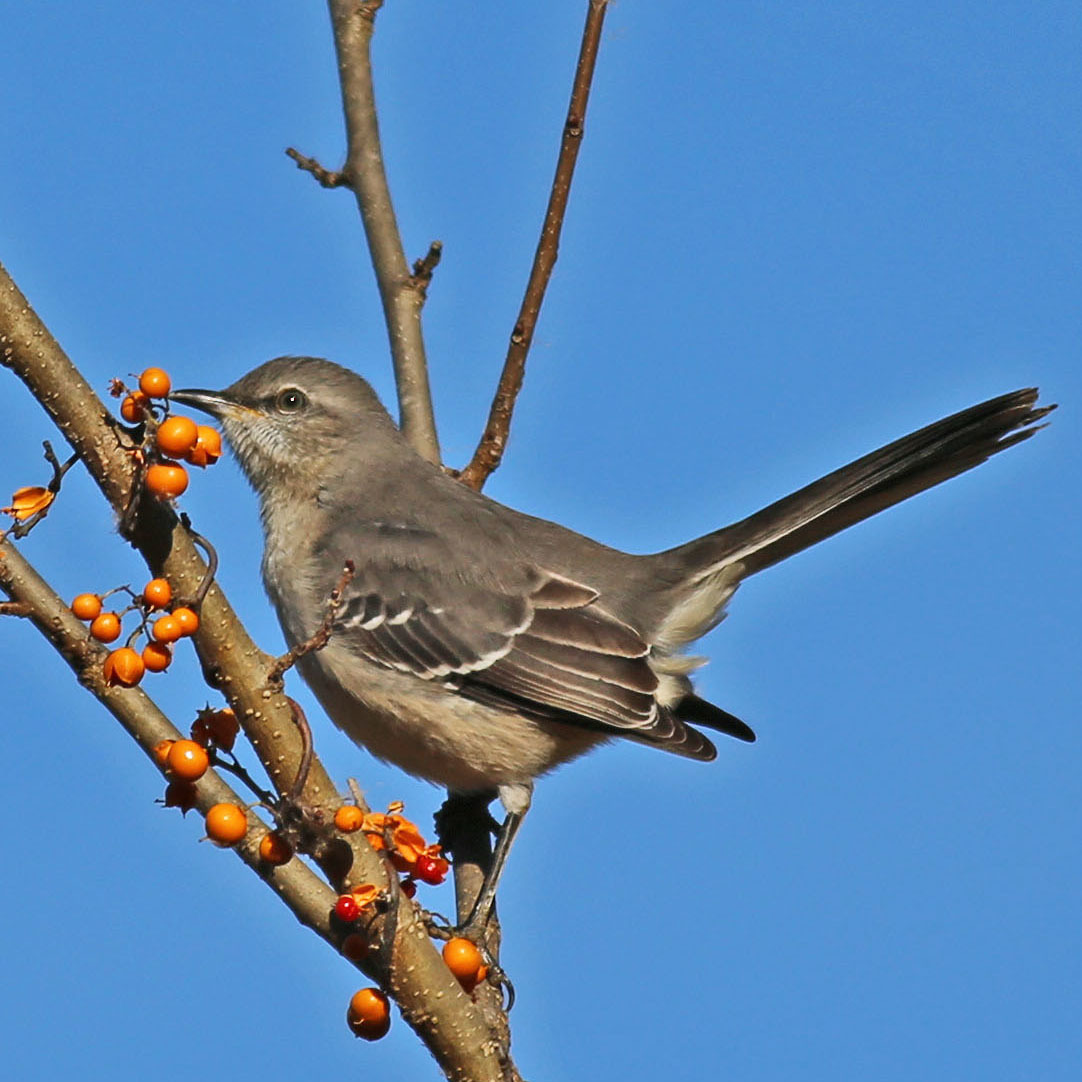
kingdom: Animalia
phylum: Chordata
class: Aves
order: Passeriformes
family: Mimidae
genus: Mimus
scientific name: Mimus polyglottos
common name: Northern mockingbird
